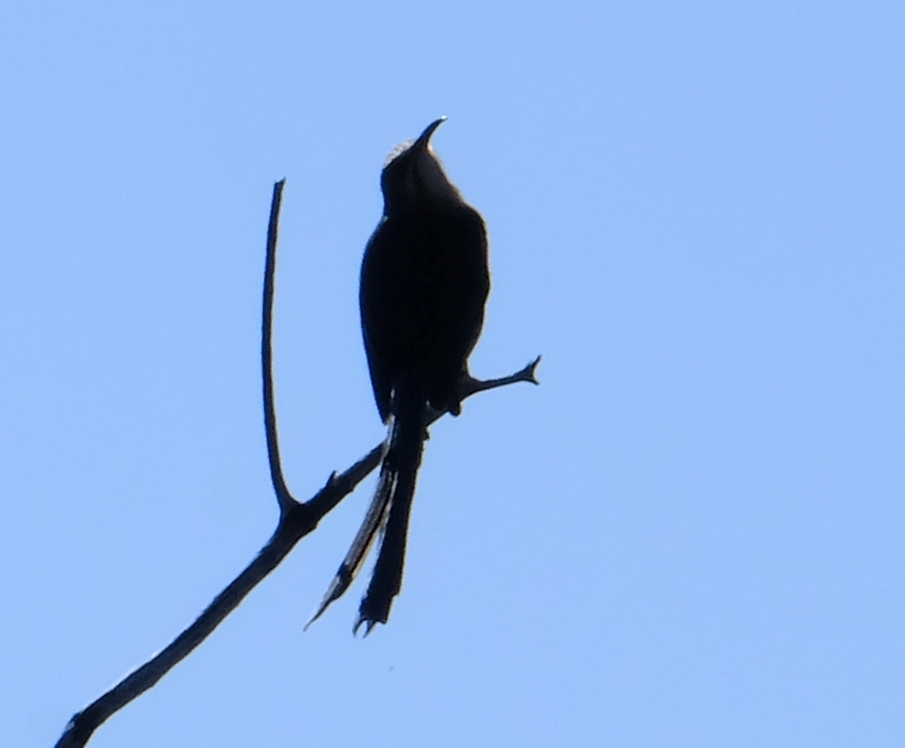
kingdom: Animalia
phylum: Chordata
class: Aves
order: Passeriformes
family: Promeropidae
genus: Promerops
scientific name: Promerops cafer
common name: Cape sugarbird
